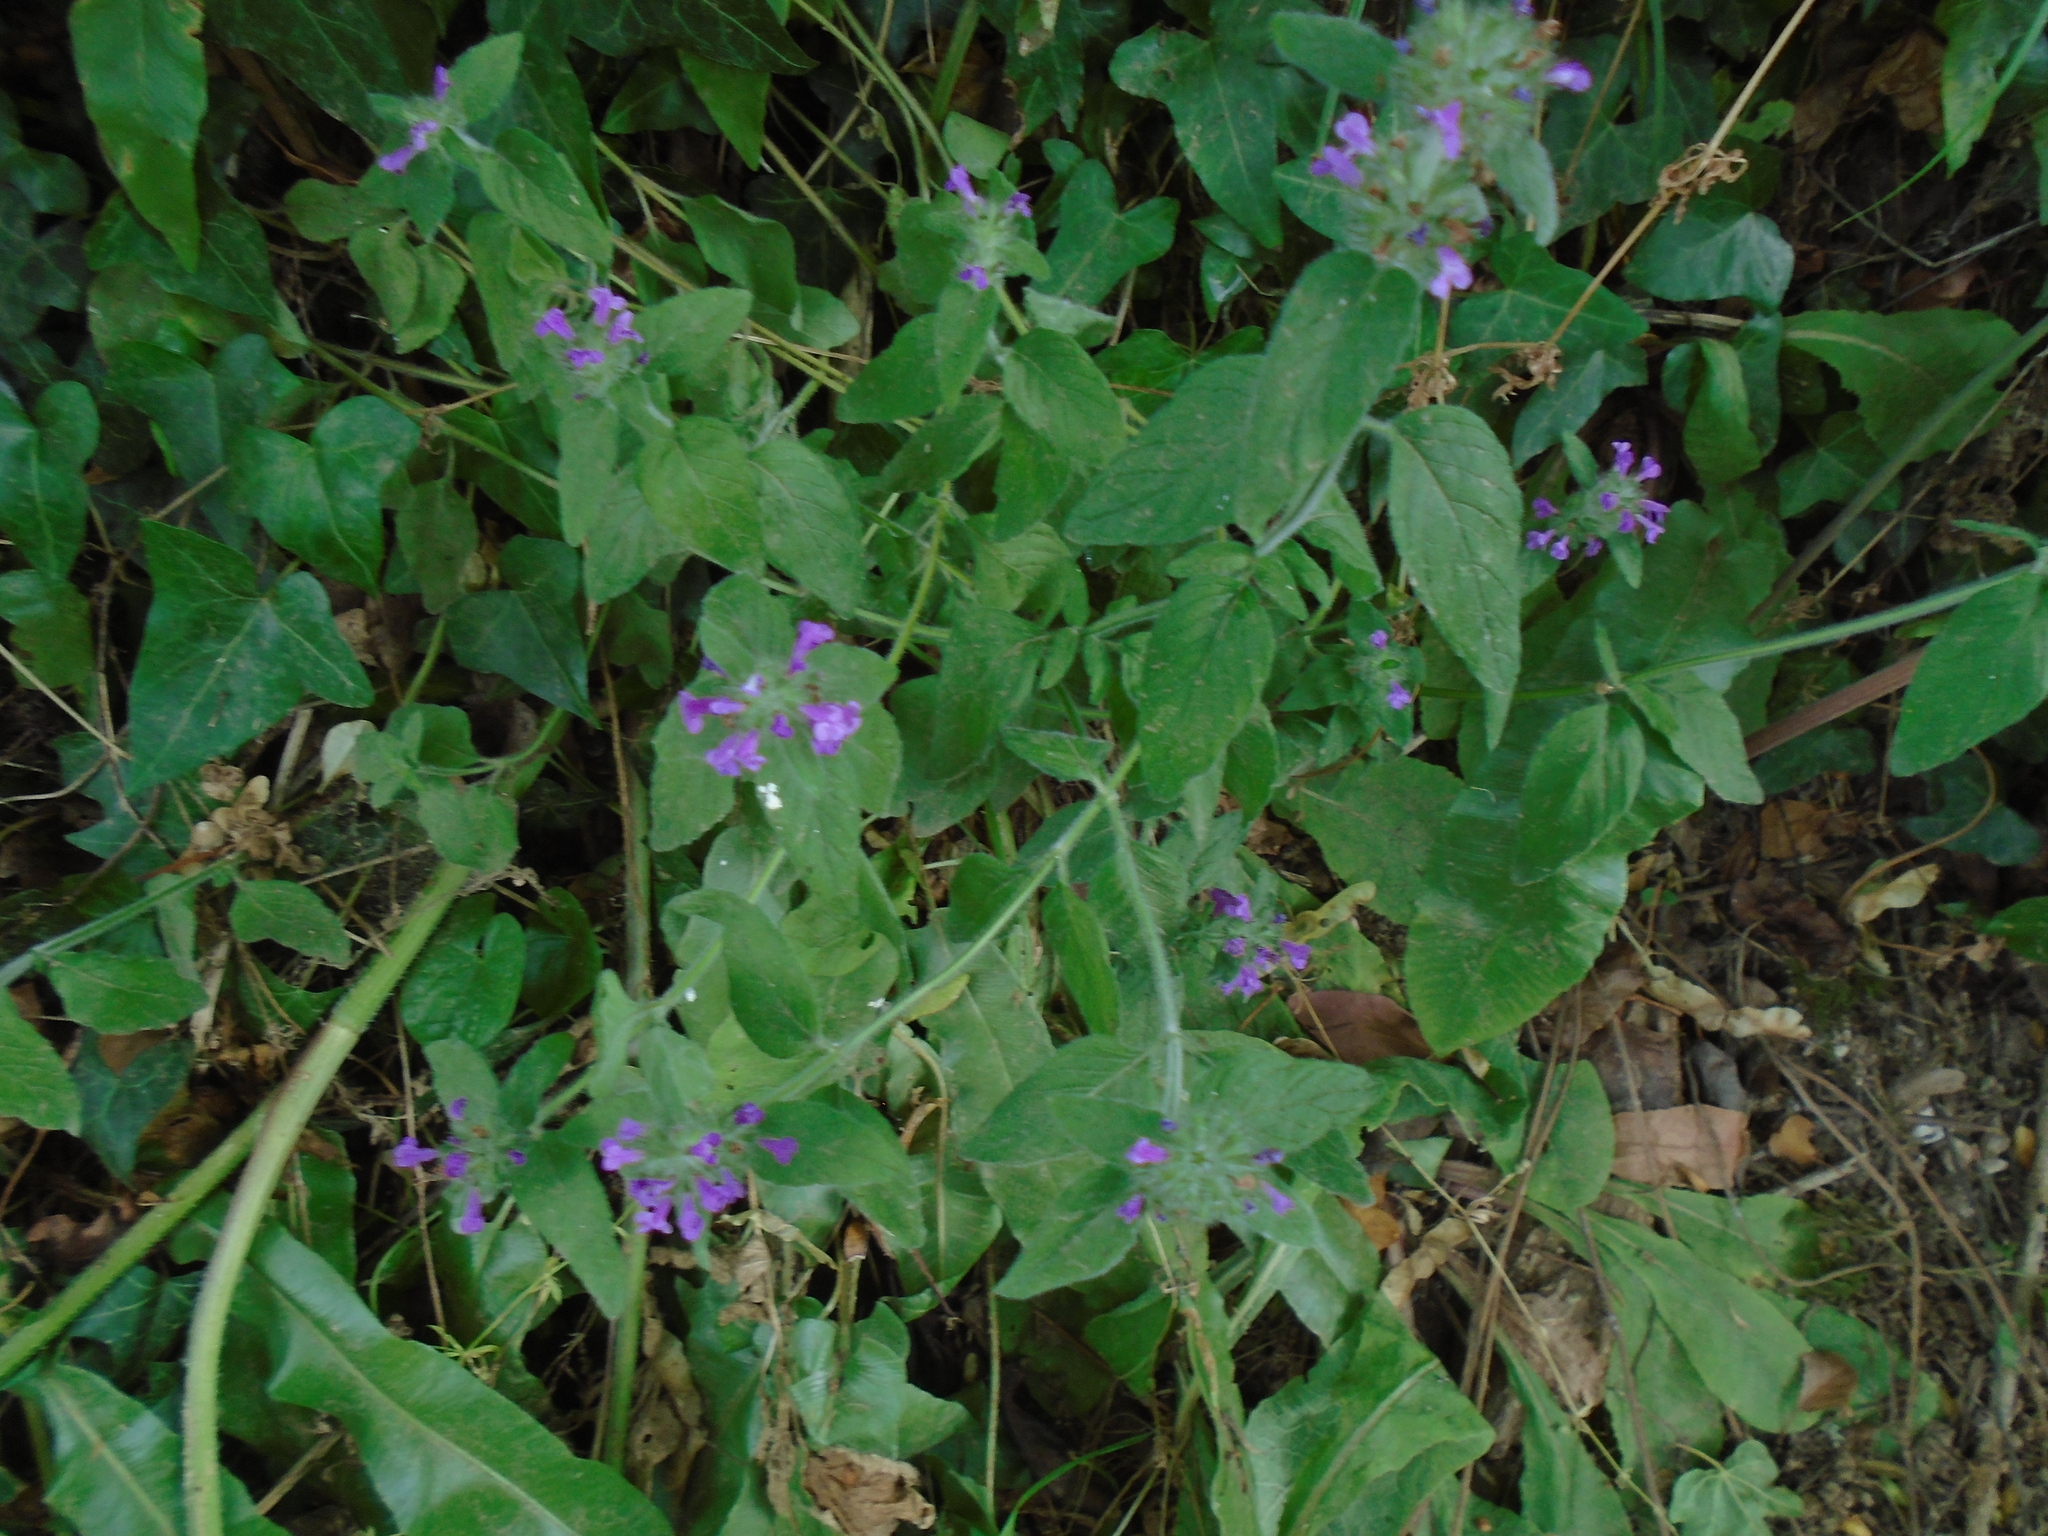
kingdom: Plantae
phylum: Tracheophyta
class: Magnoliopsida
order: Lamiales
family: Lamiaceae
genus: Clinopodium
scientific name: Clinopodium vulgare
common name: Wild basil
